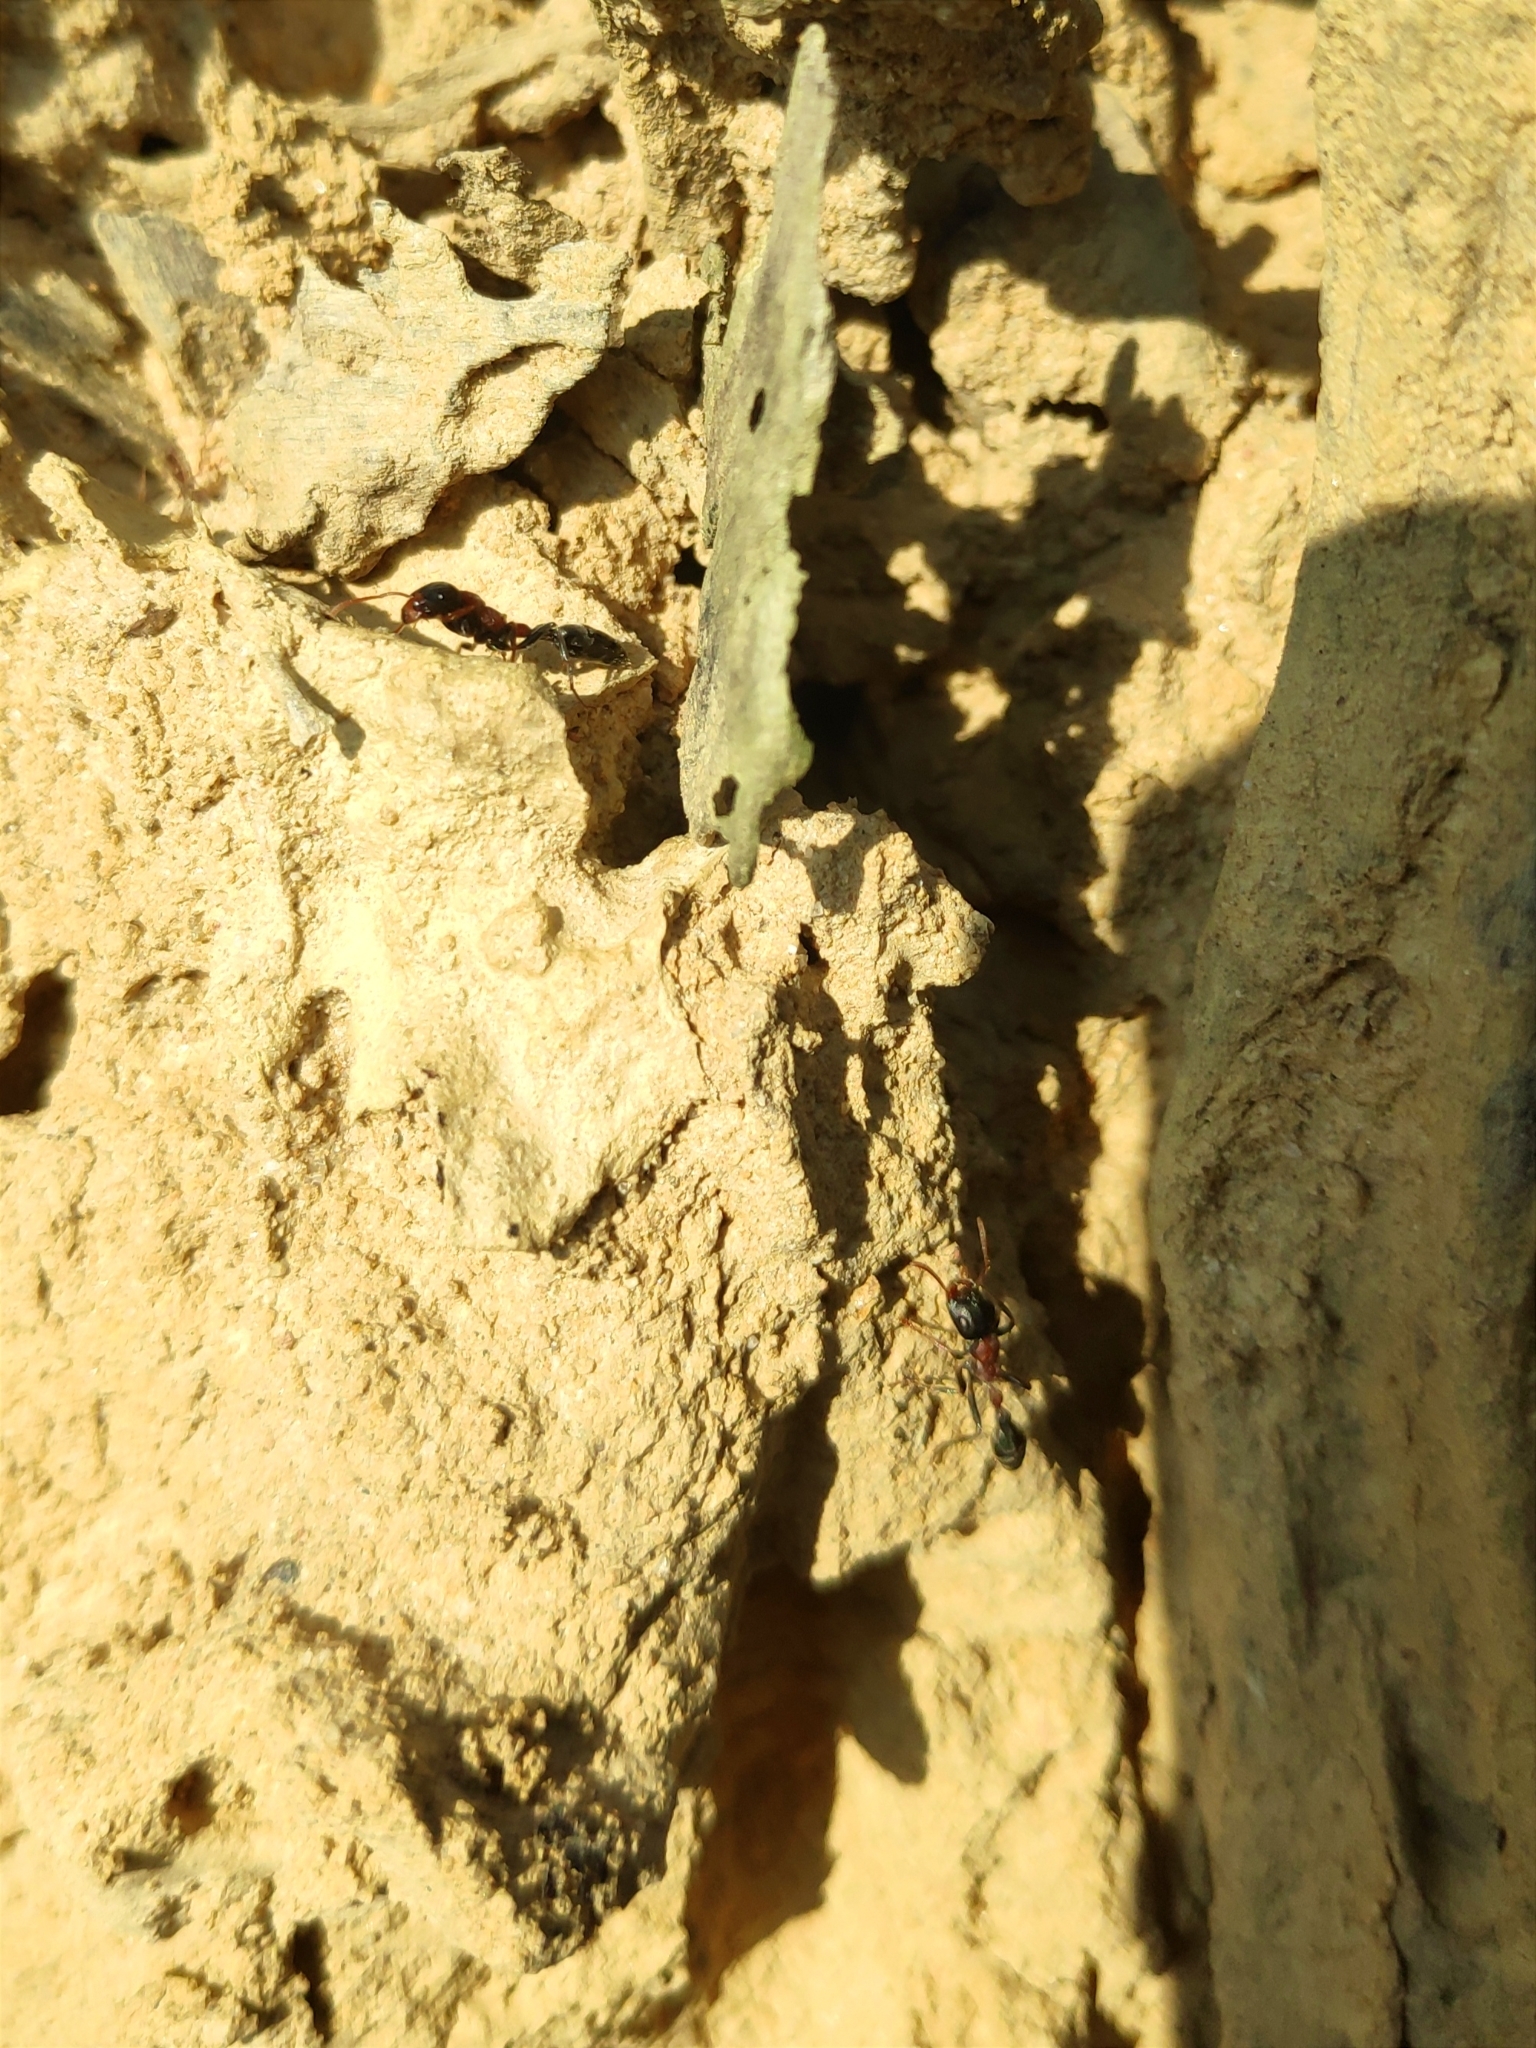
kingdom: Animalia
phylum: Arthropoda
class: Insecta
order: Hymenoptera
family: Formicidae
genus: Tetraponera
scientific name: Tetraponera rufonigra
